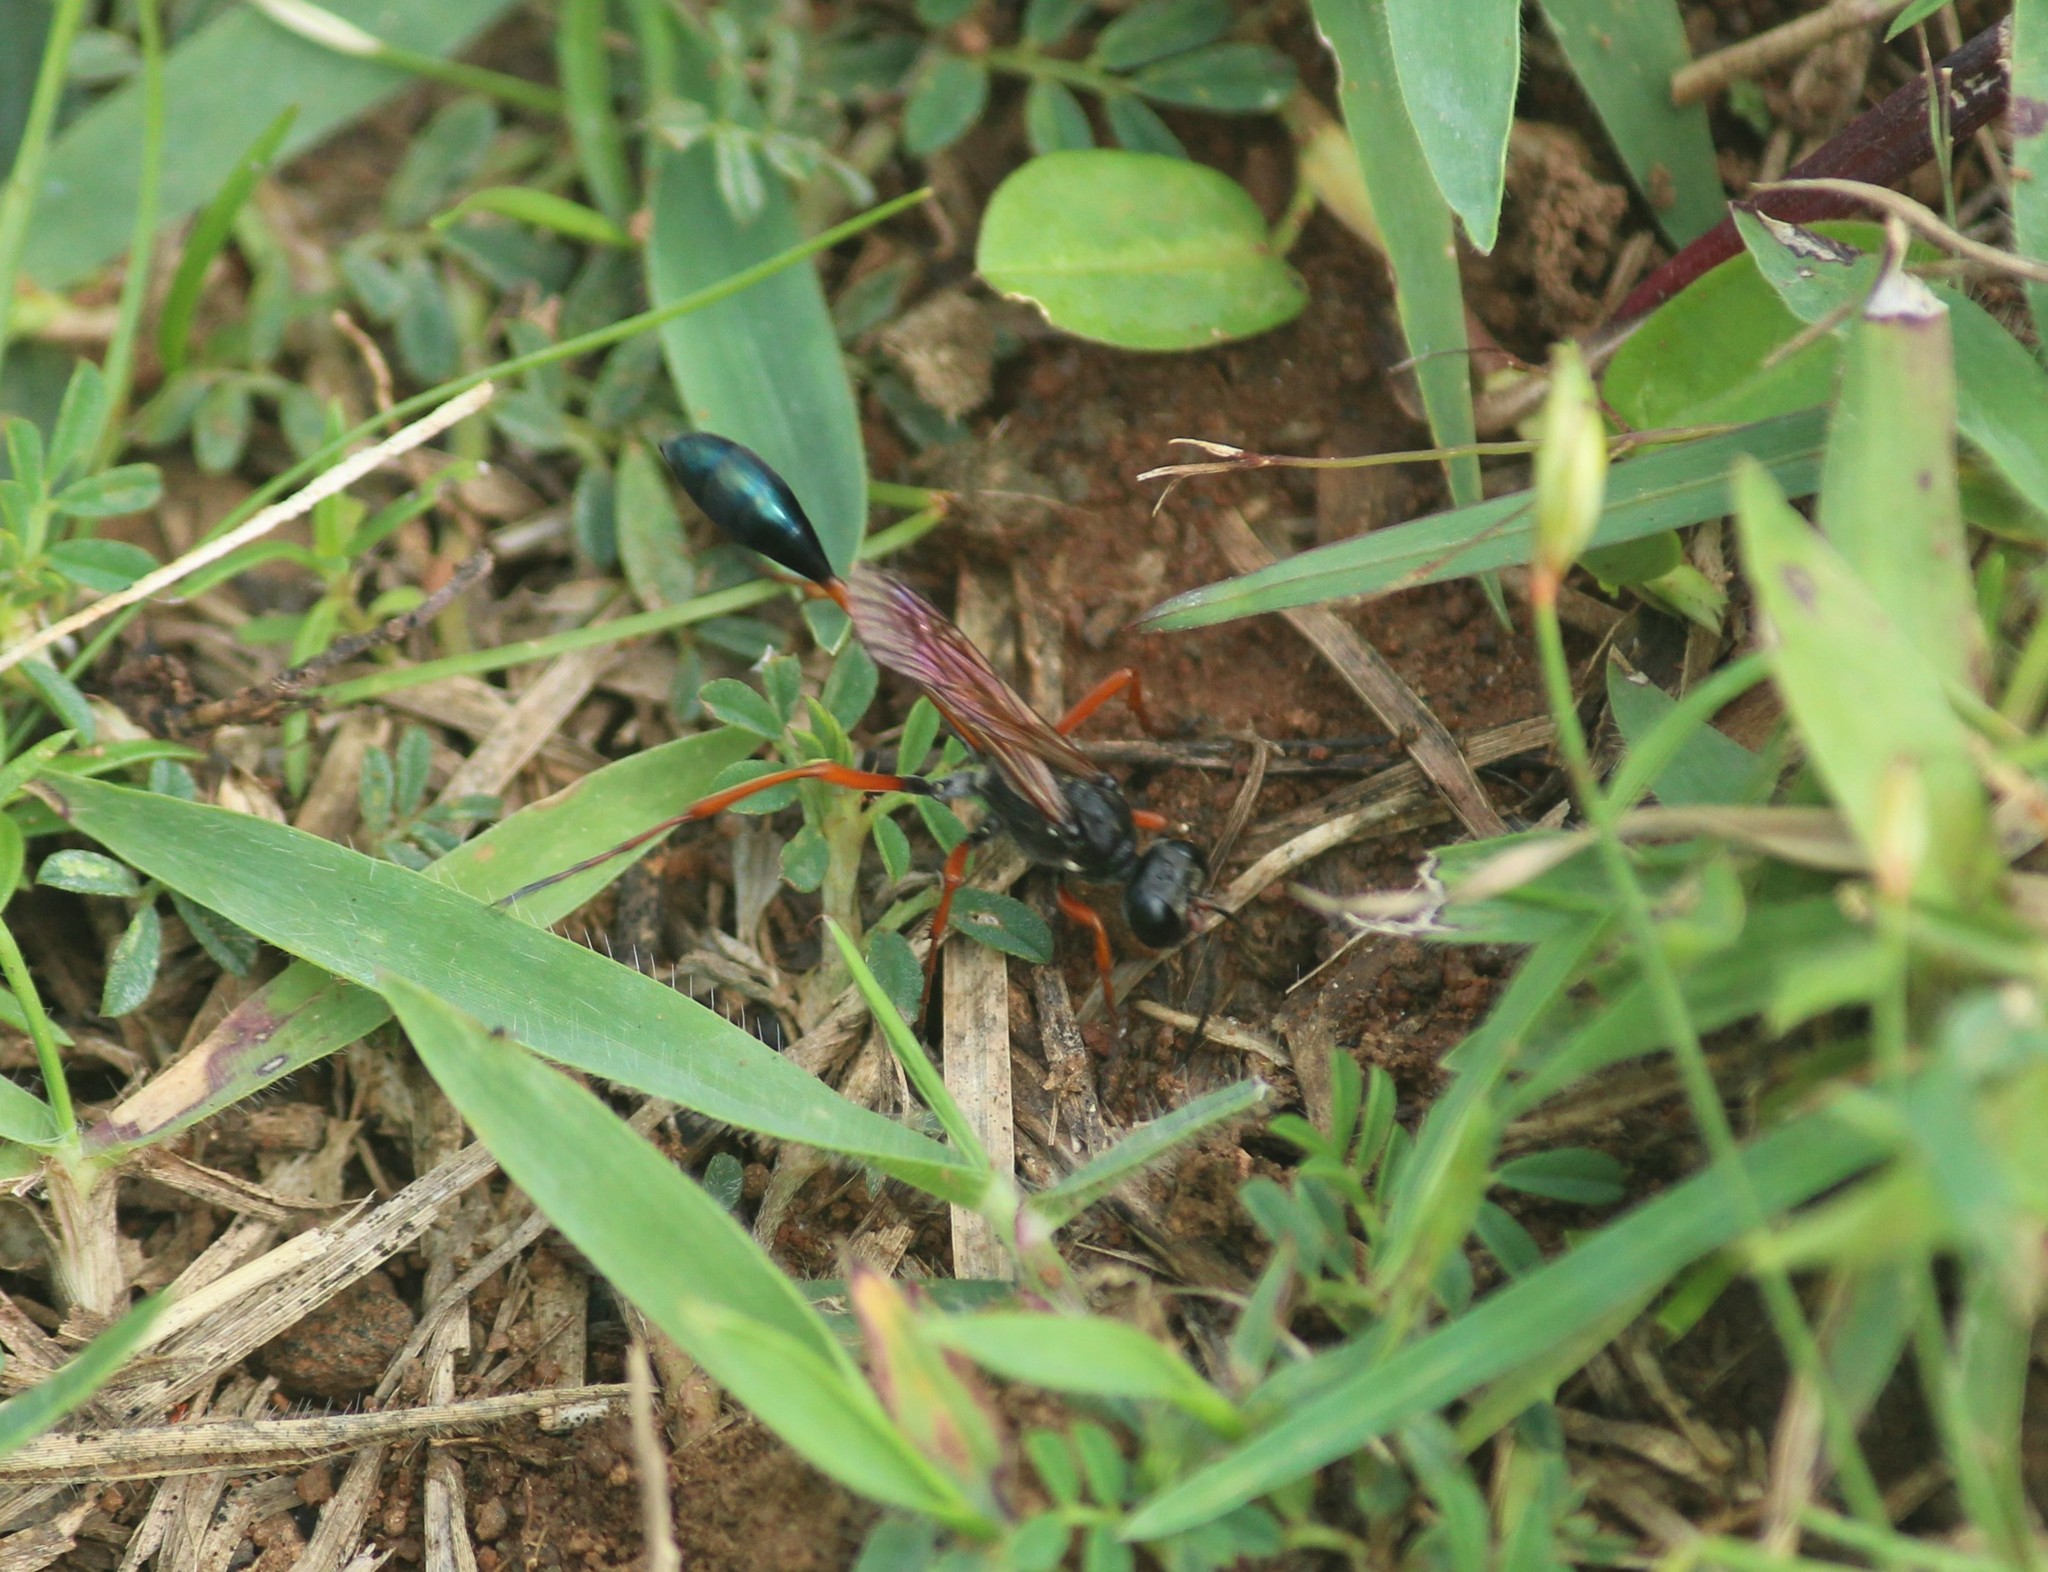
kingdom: Animalia
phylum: Arthropoda
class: Insecta
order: Hymenoptera
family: Sphecidae
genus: Ammophila
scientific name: Ammophila clavus
